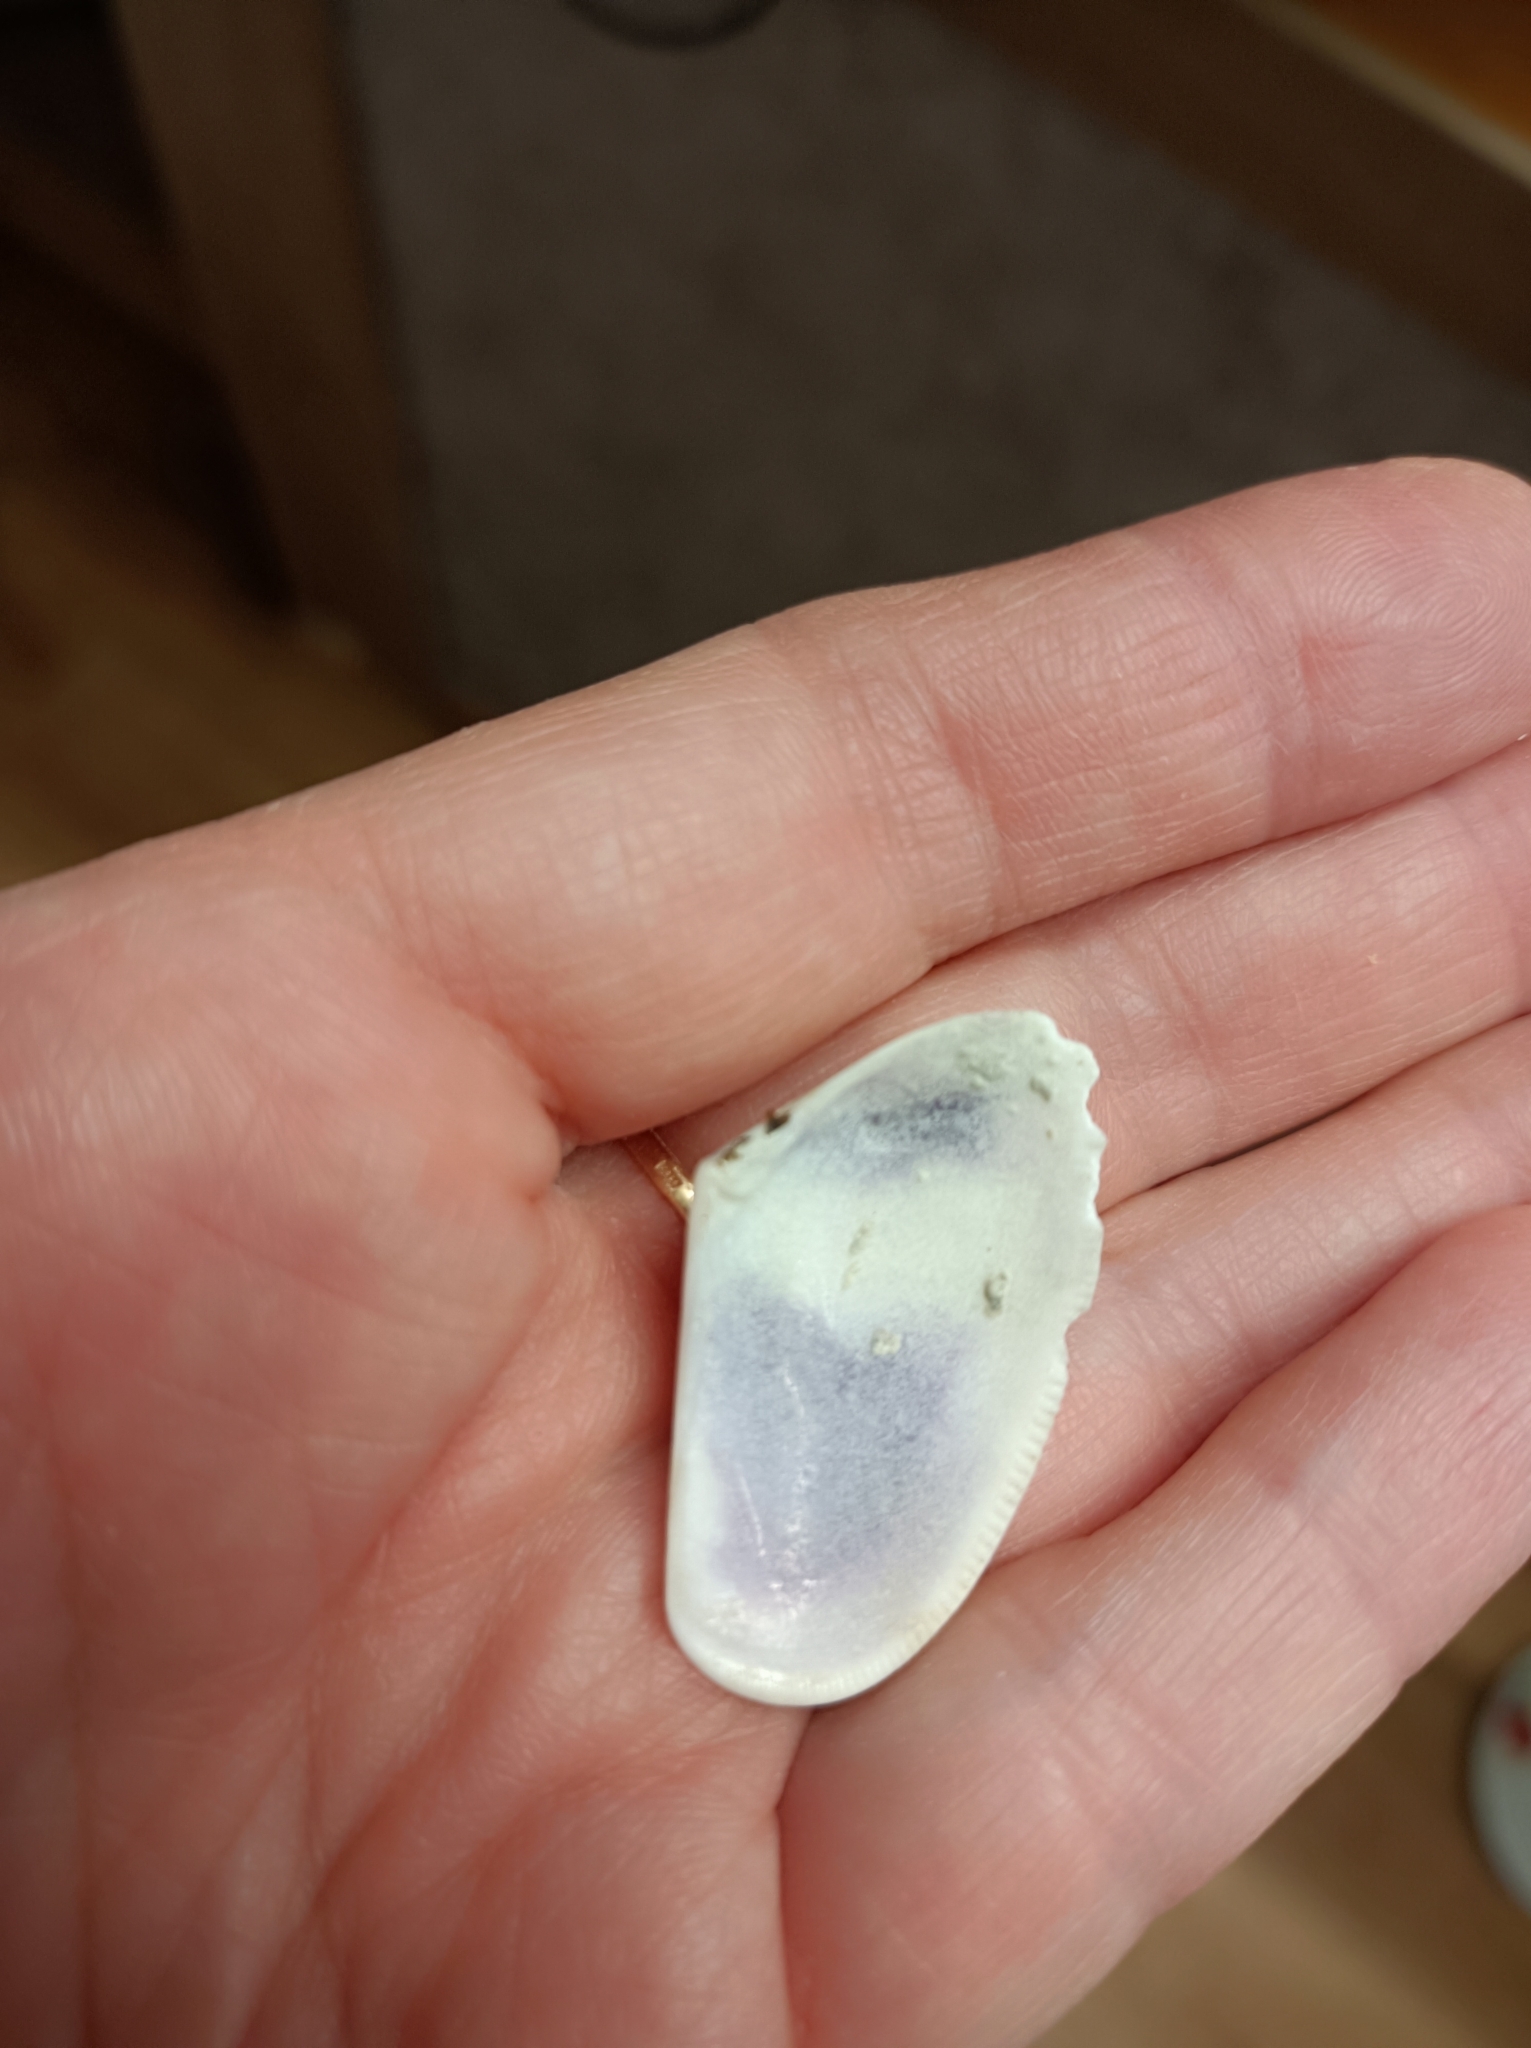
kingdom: Animalia
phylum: Mollusca
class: Bivalvia
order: Cardiida
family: Donacidae
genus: Donax
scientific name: Donax trunculus
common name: Truncate donax
